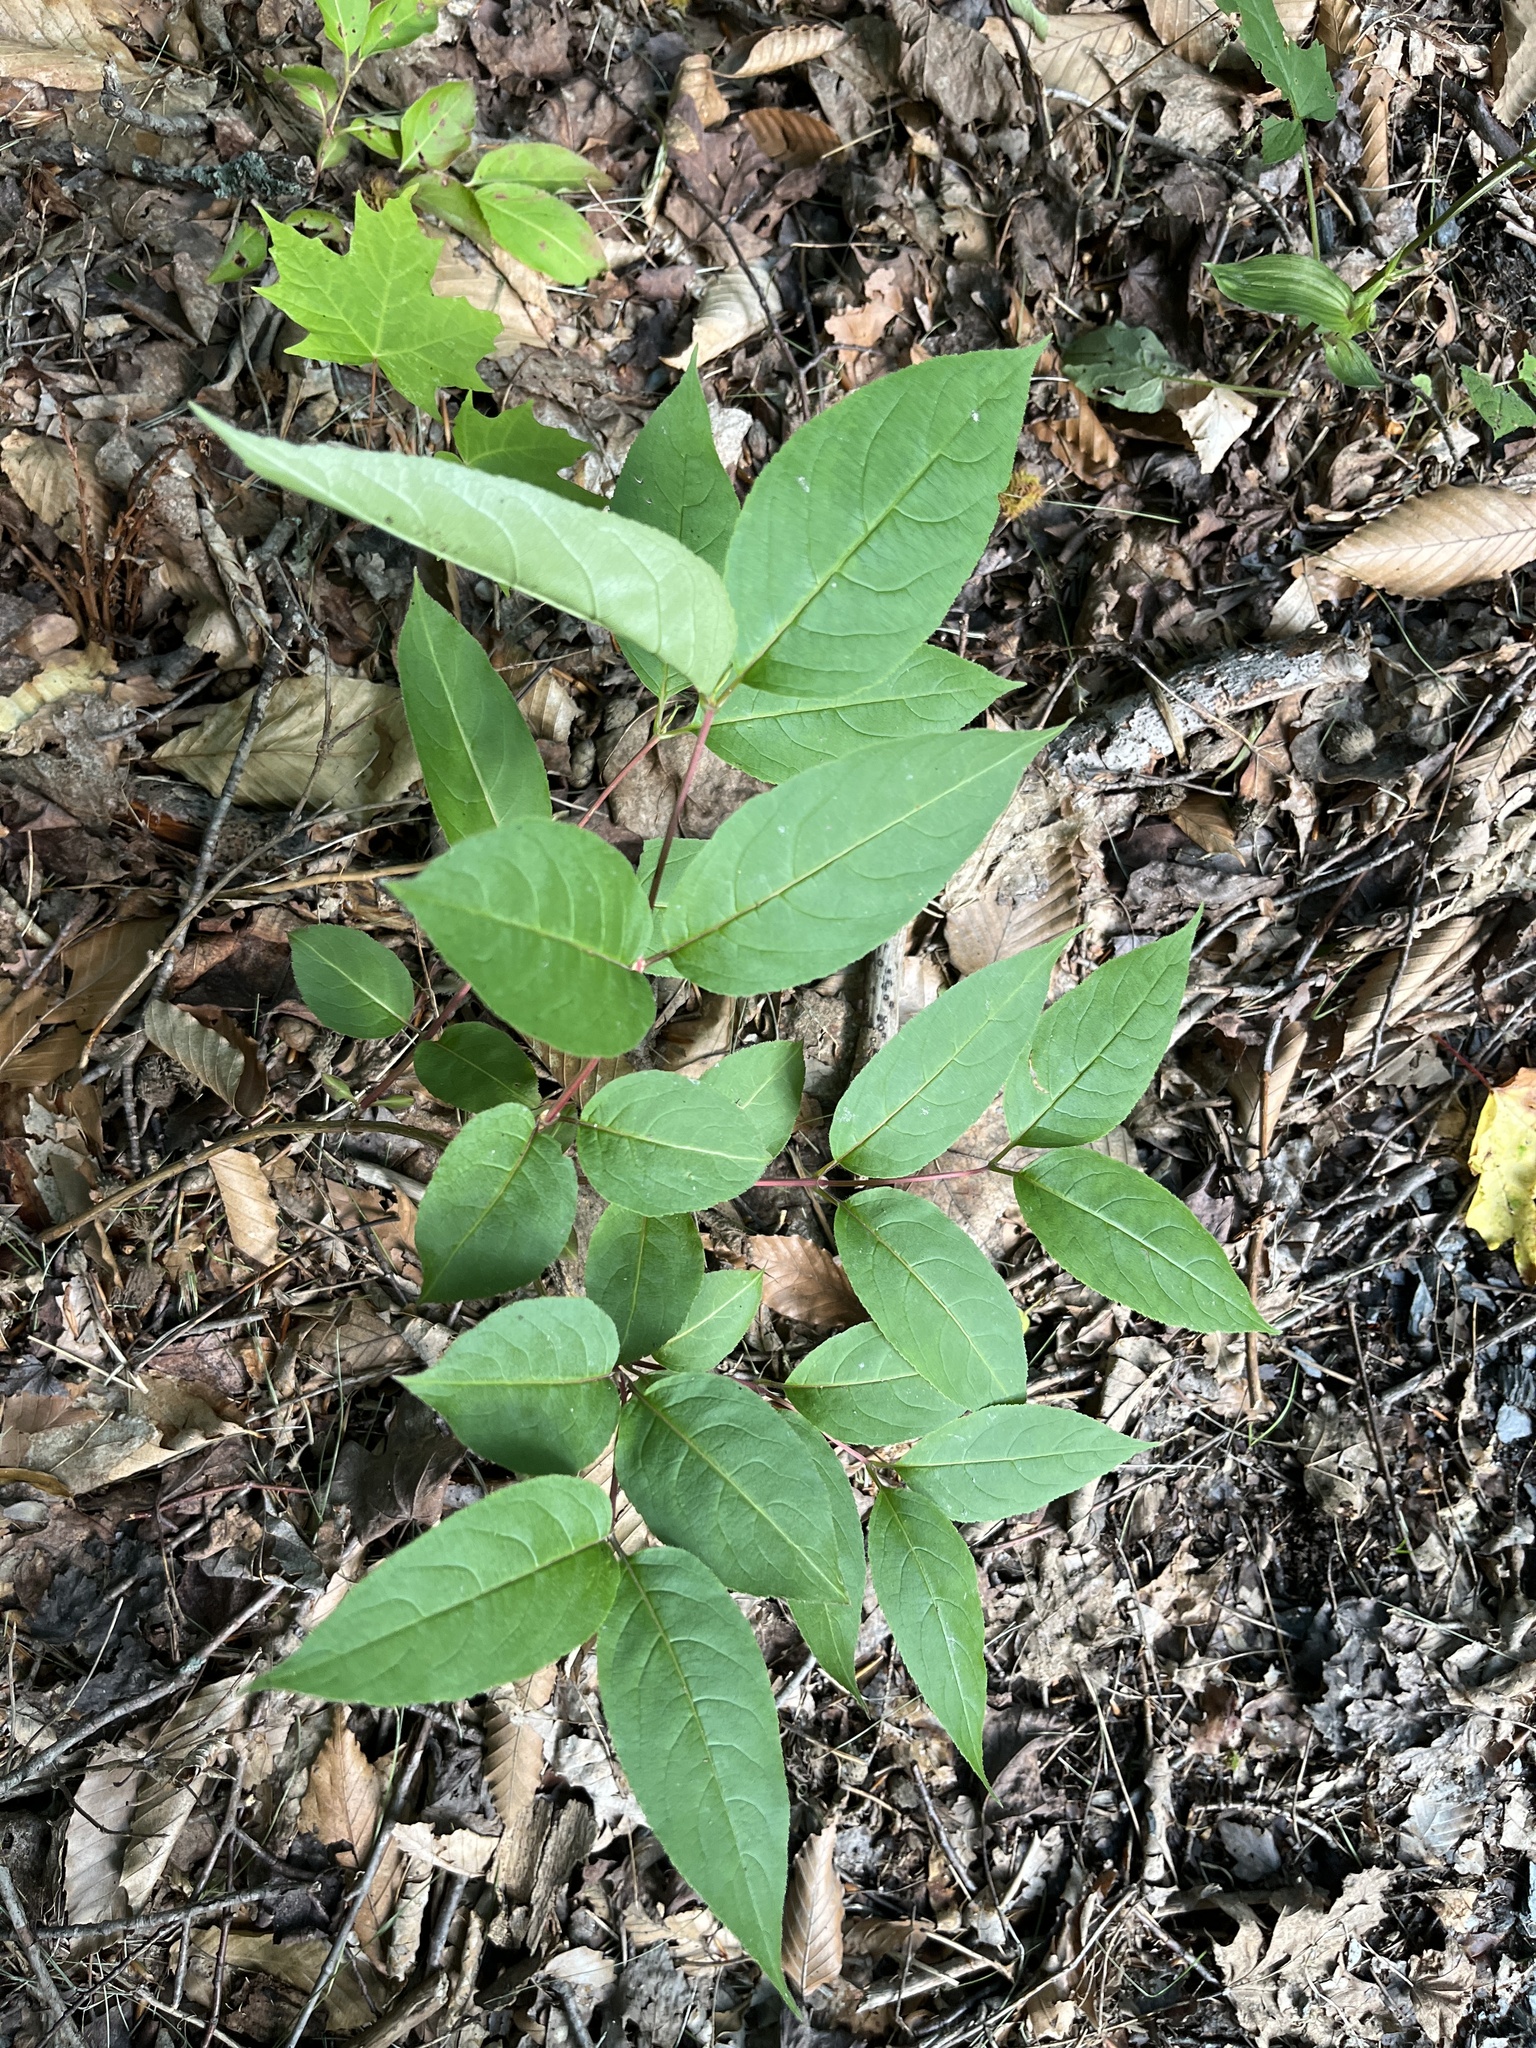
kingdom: Plantae
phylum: Tracheophyta
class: Magnoliopsida
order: Dipsacales
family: Caprifoliaceae
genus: Diervilla
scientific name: Diervilla lonicera
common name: Bush-honeysuckle
